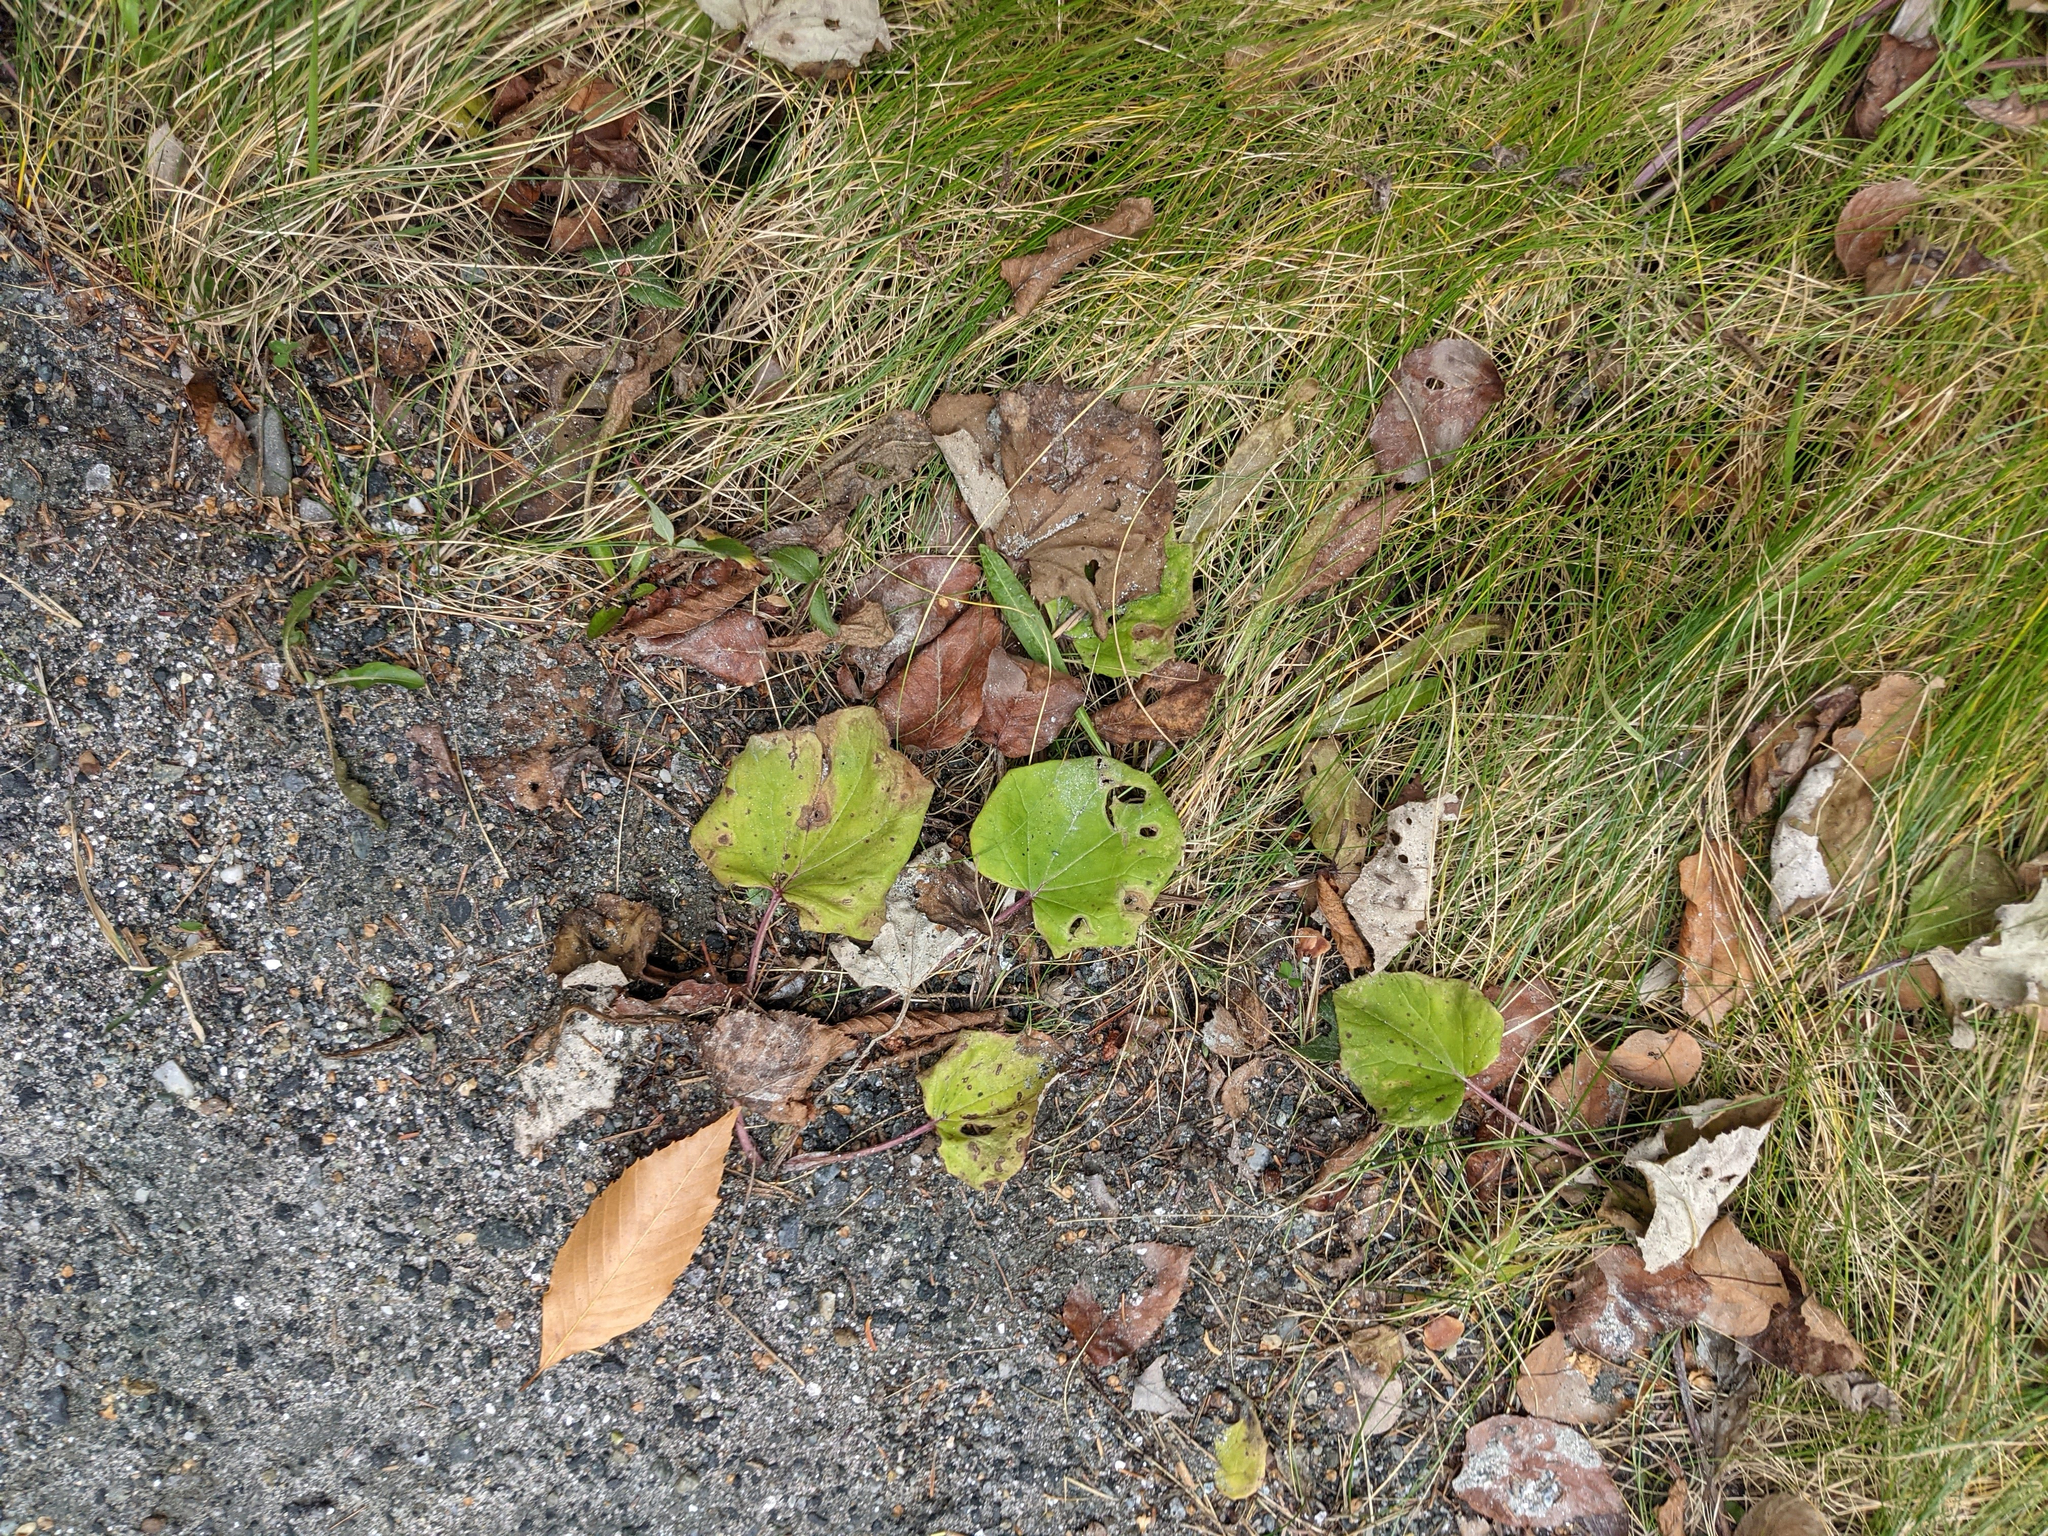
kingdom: Plantae
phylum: Tracheophyta
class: Magnoliopsida
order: Asterales
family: Asteraceae
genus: Tussilago
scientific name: Tussilago farfara
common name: Coltsfoot
